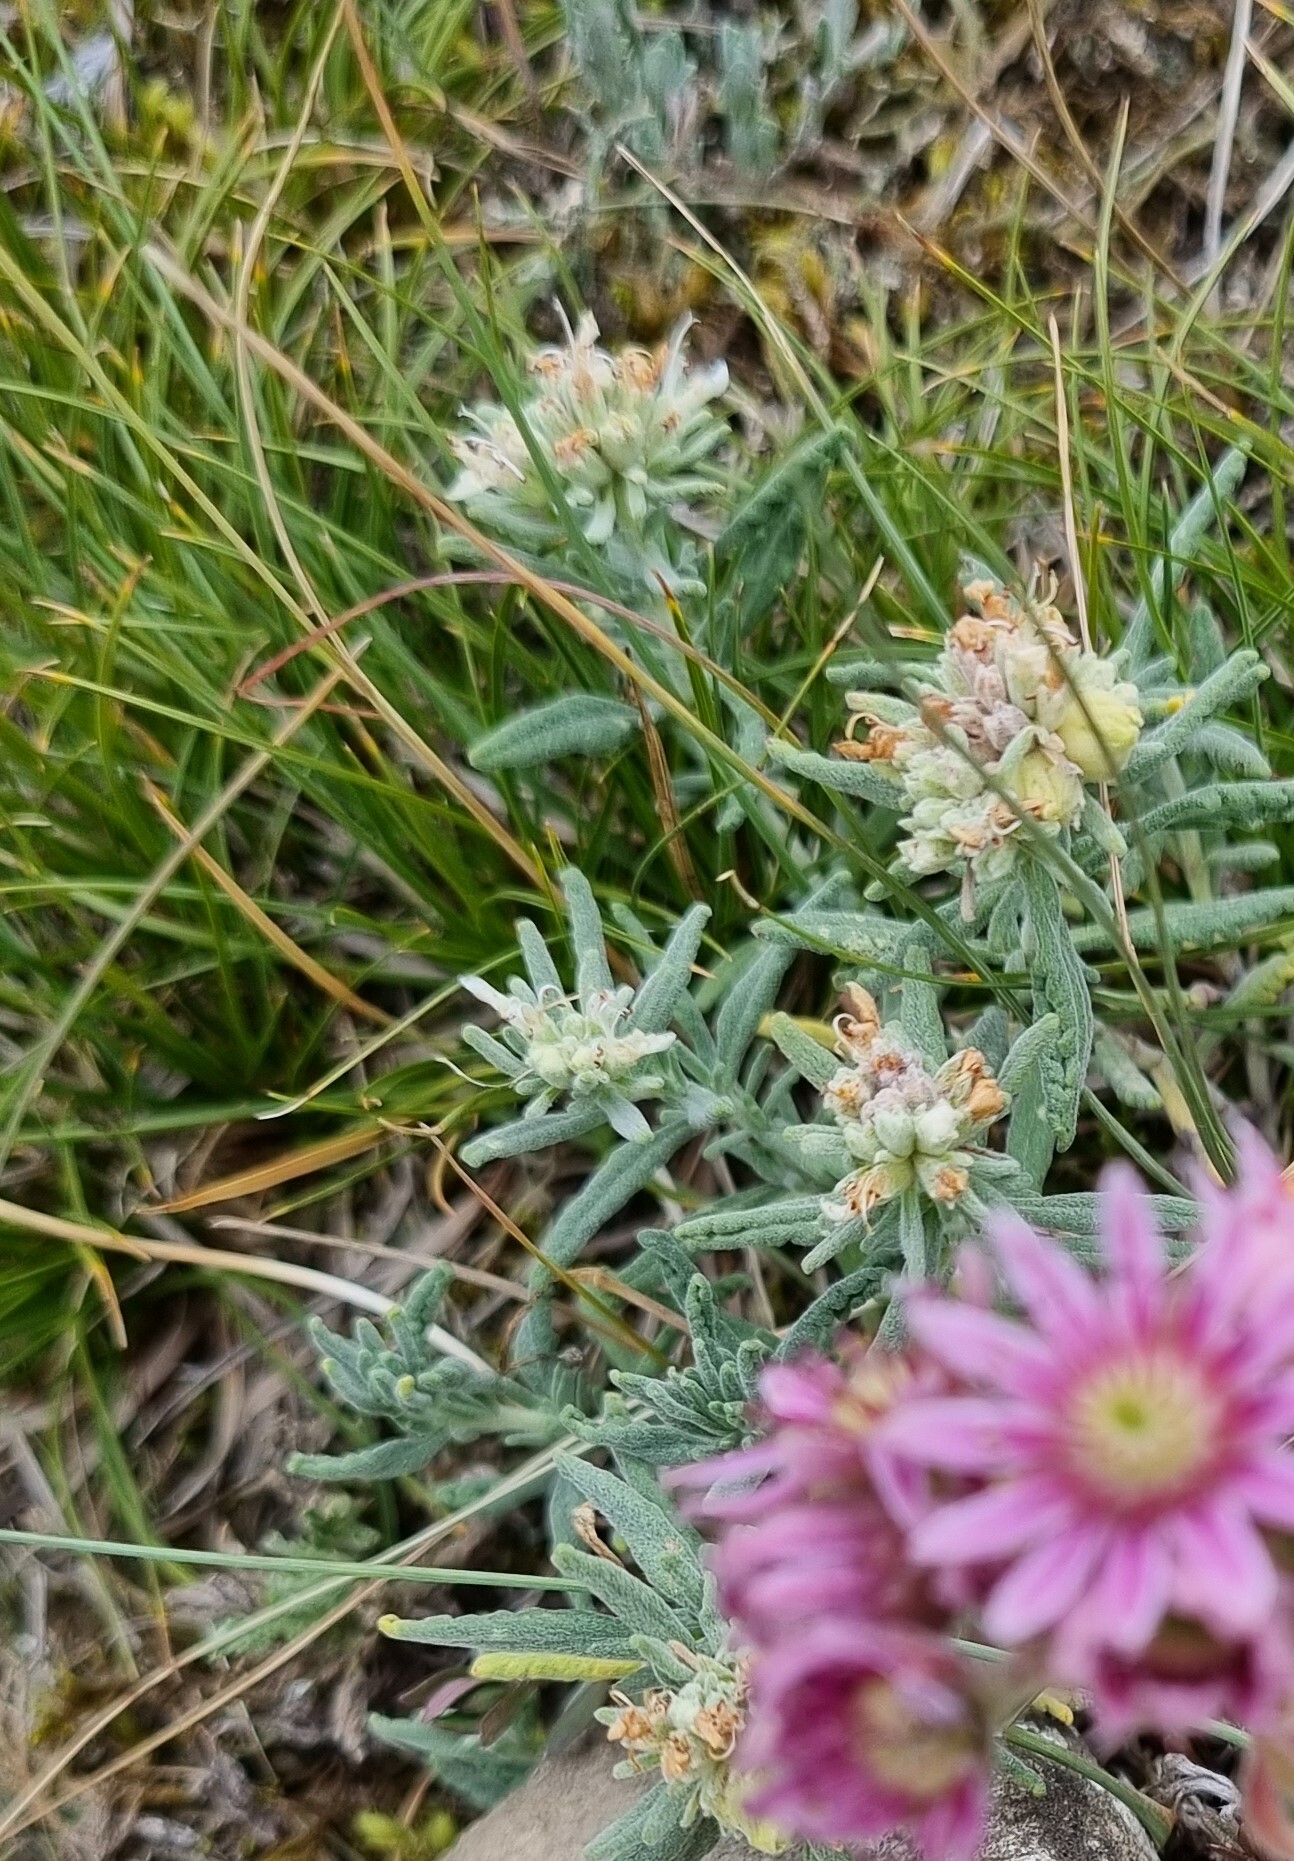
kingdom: Plantae
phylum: Tracheophyta
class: Magnoliopsida
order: Lamiales
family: Lamiaceae
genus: Teucrium
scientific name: Teucrium polium
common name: Poley
